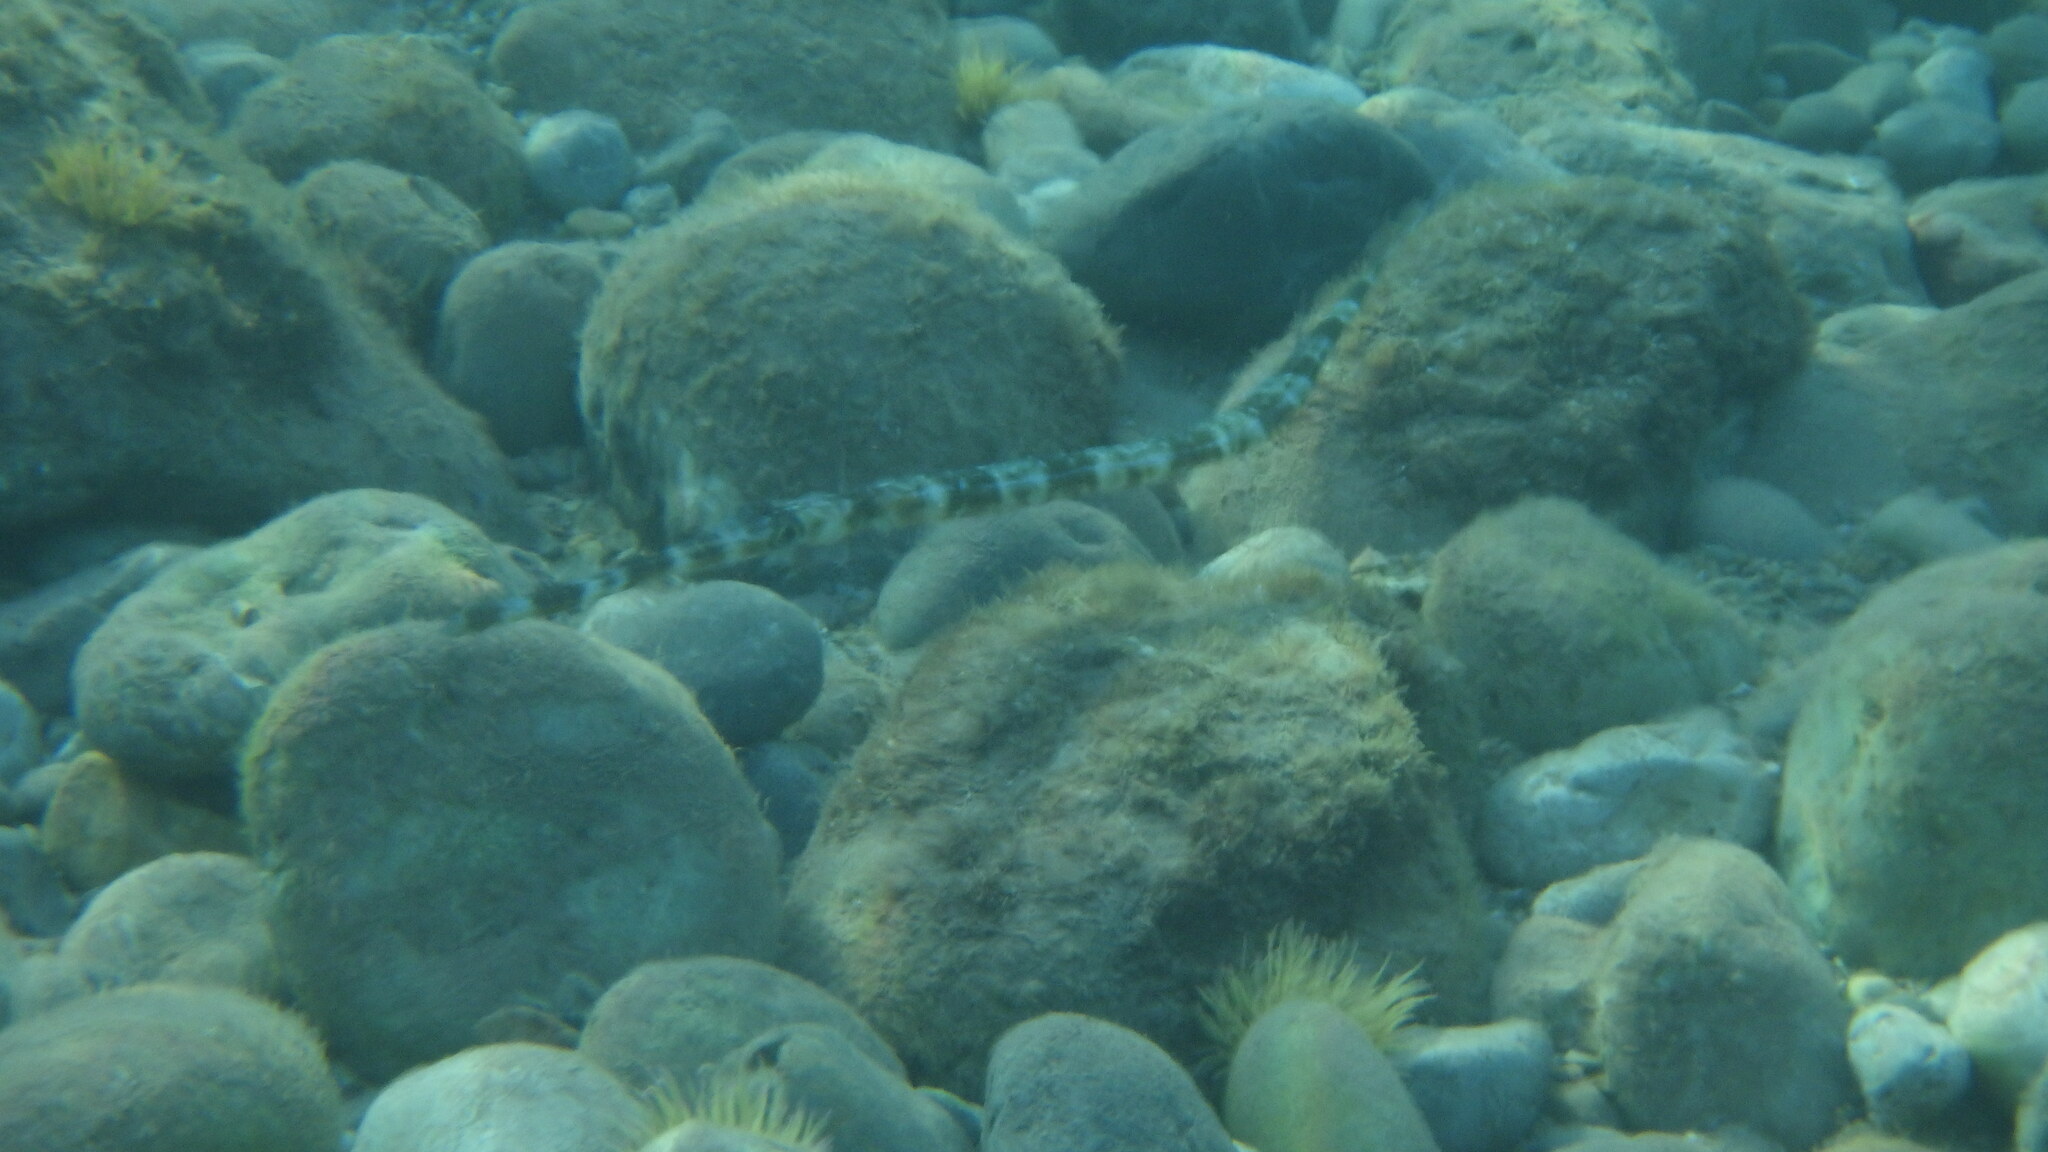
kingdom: Animalia
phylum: Chordata
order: Syngnathiformes
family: Fistulariidae
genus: Fistularia
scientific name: Fistularia commersonii
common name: Bluespotted cornetfish
